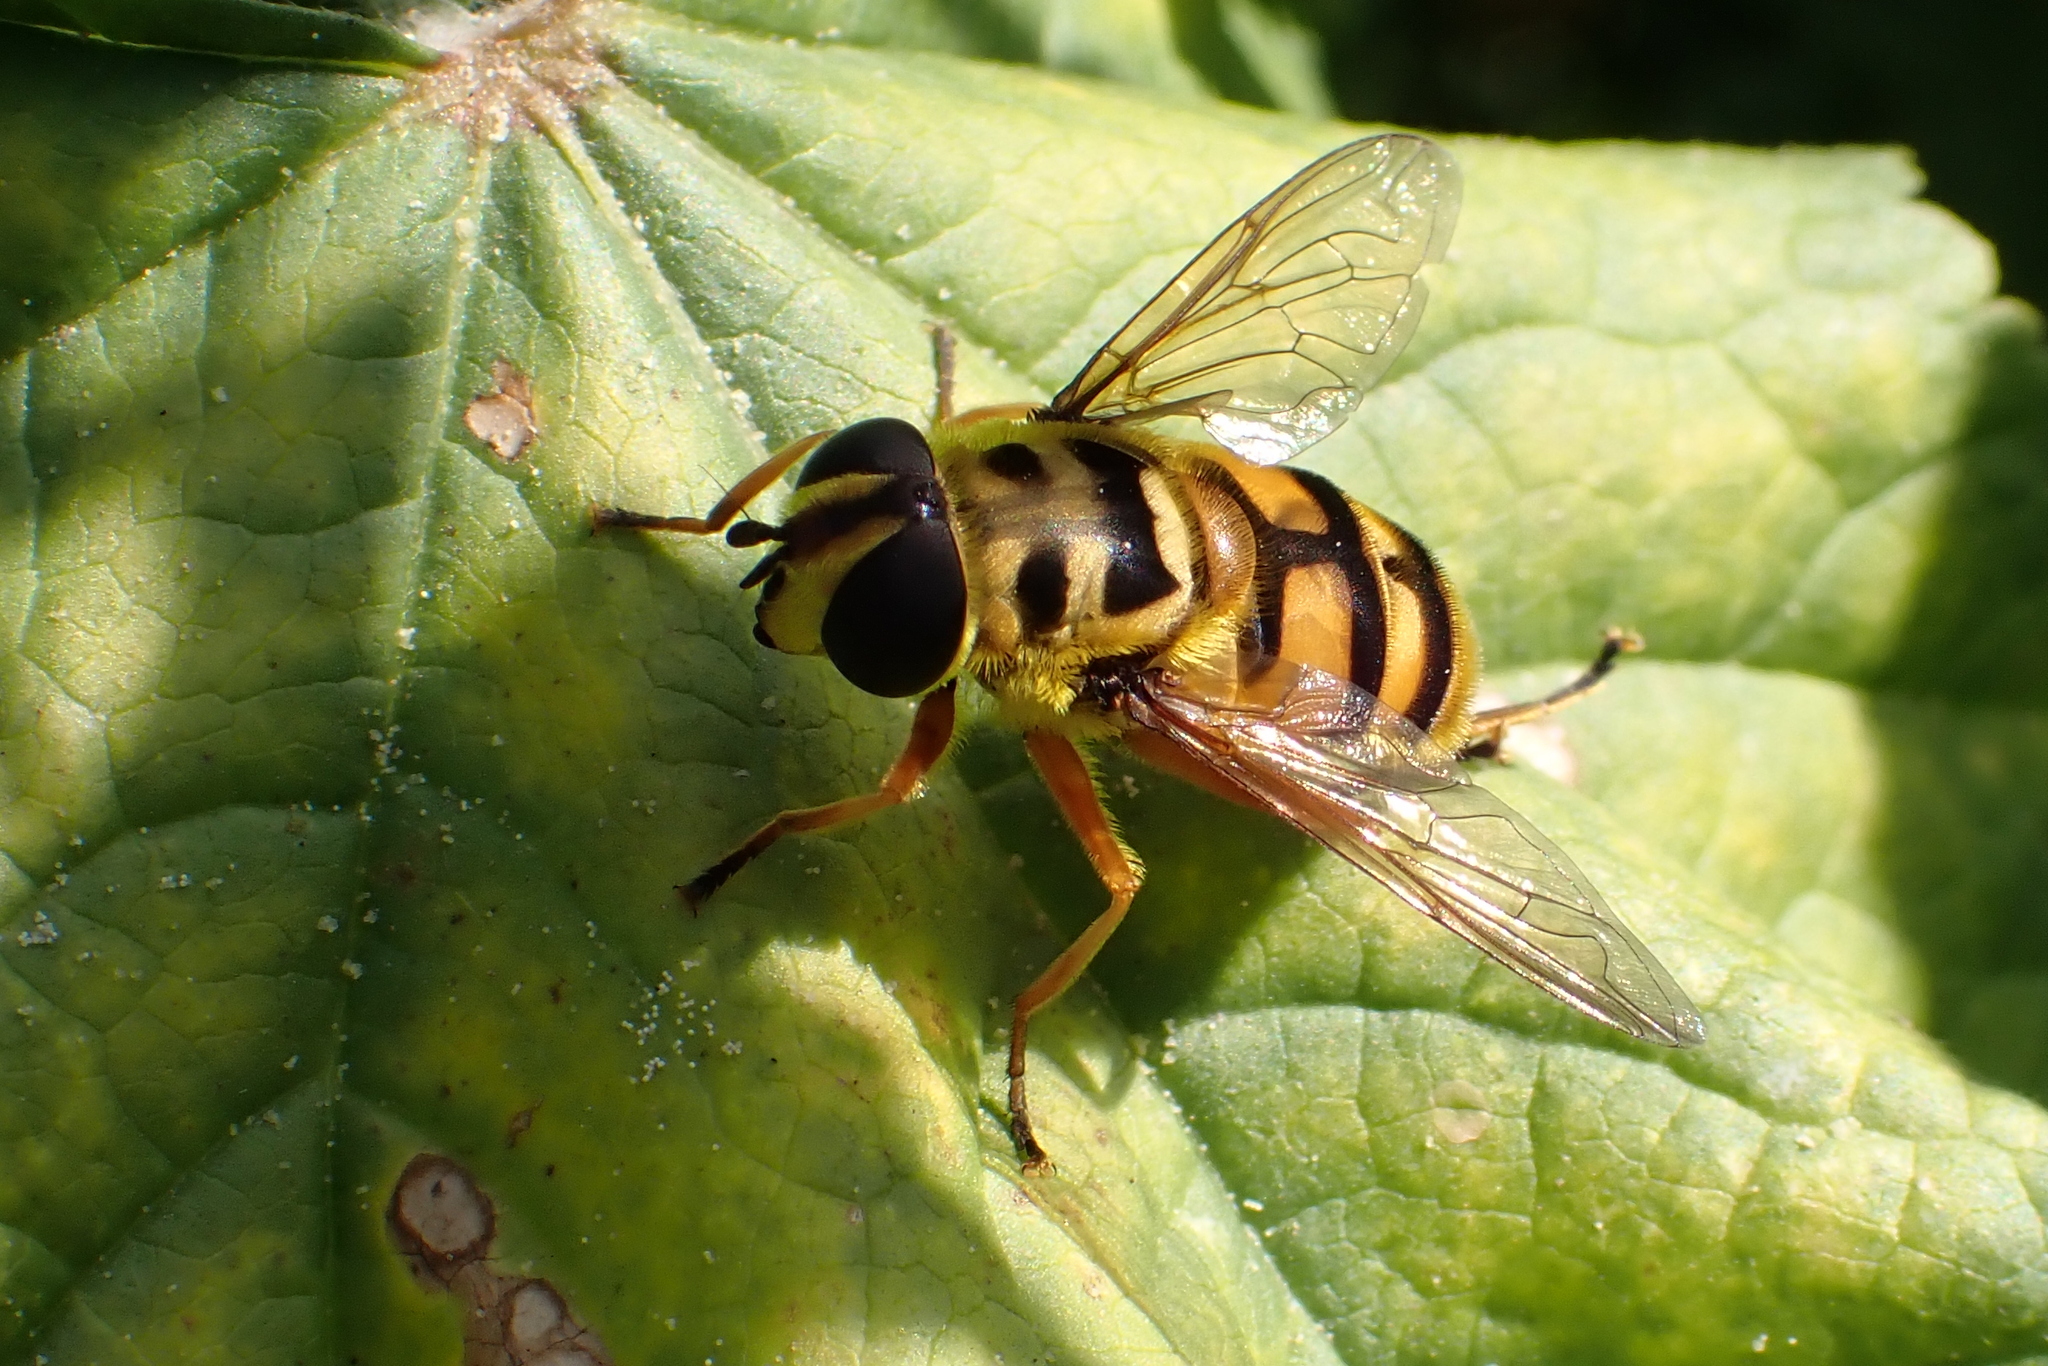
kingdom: Animalia
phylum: Arthropoda
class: Insecta
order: Diptera
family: Syrphidae
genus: Myathropa
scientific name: Myathropa florea
